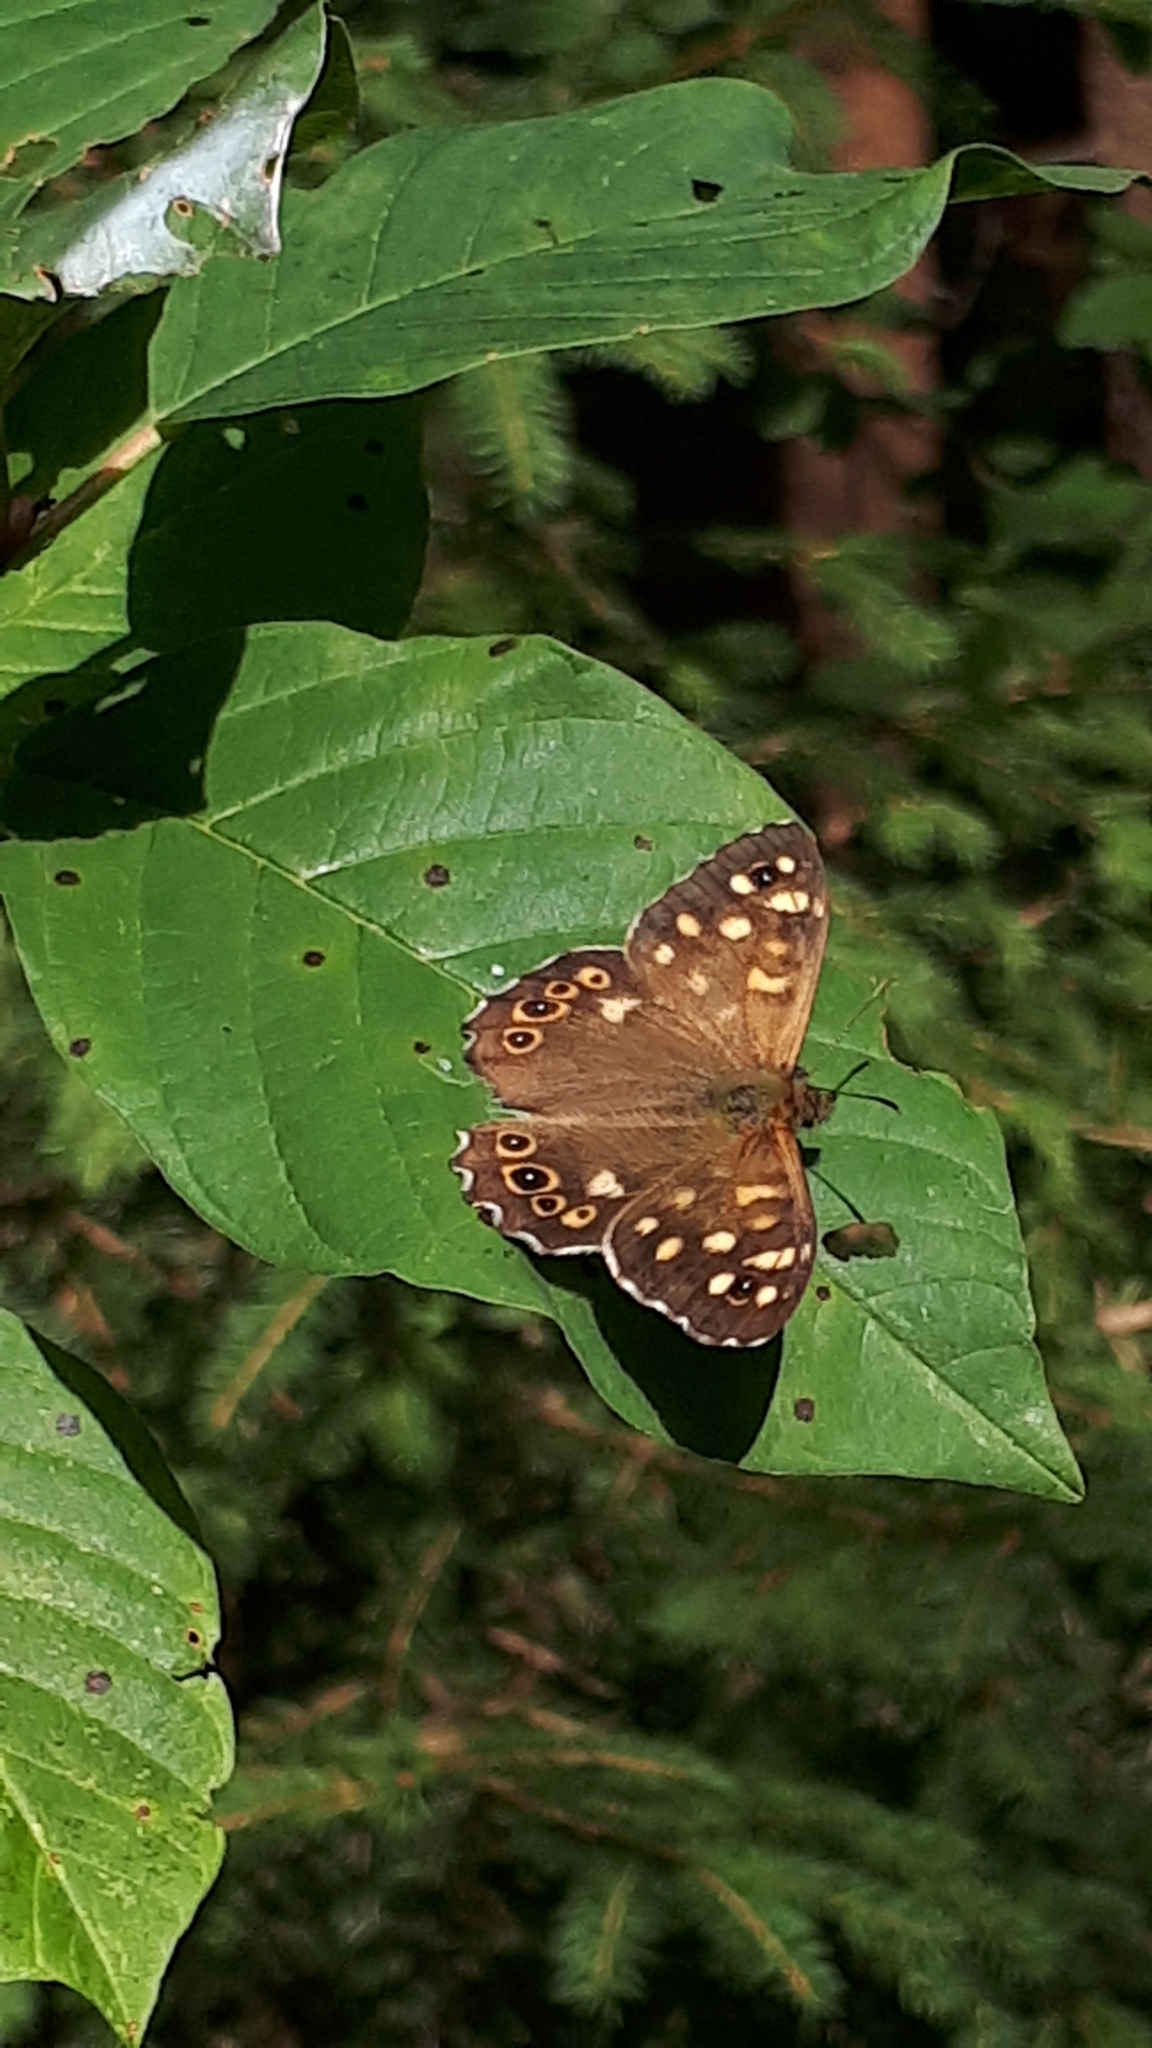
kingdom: Animalia
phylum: Arthropoda
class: Insecta
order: Lepidoptera
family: Nymphalidae
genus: Pararge
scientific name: Pararge aegeria
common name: Speckled wood
